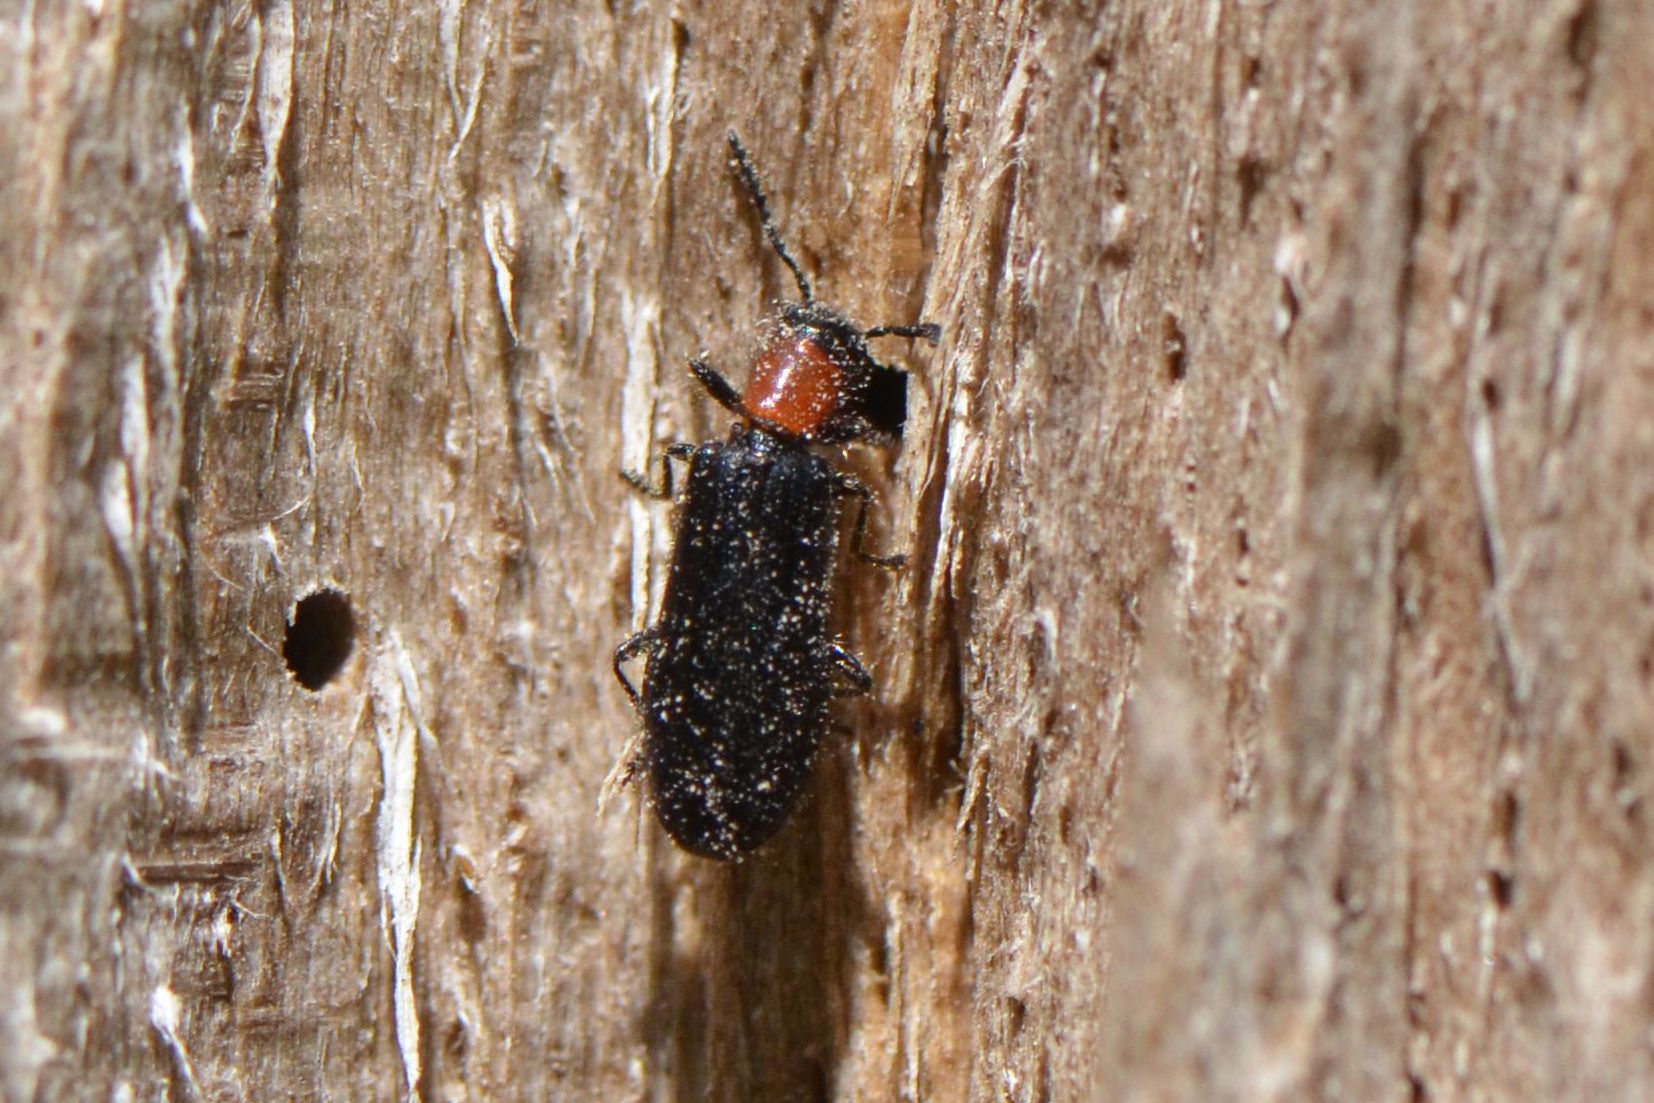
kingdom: Animalia
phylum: Arthropoda
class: Insecta
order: Coleoptera
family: Cleridae
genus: Tillus
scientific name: Tillus elongatus
